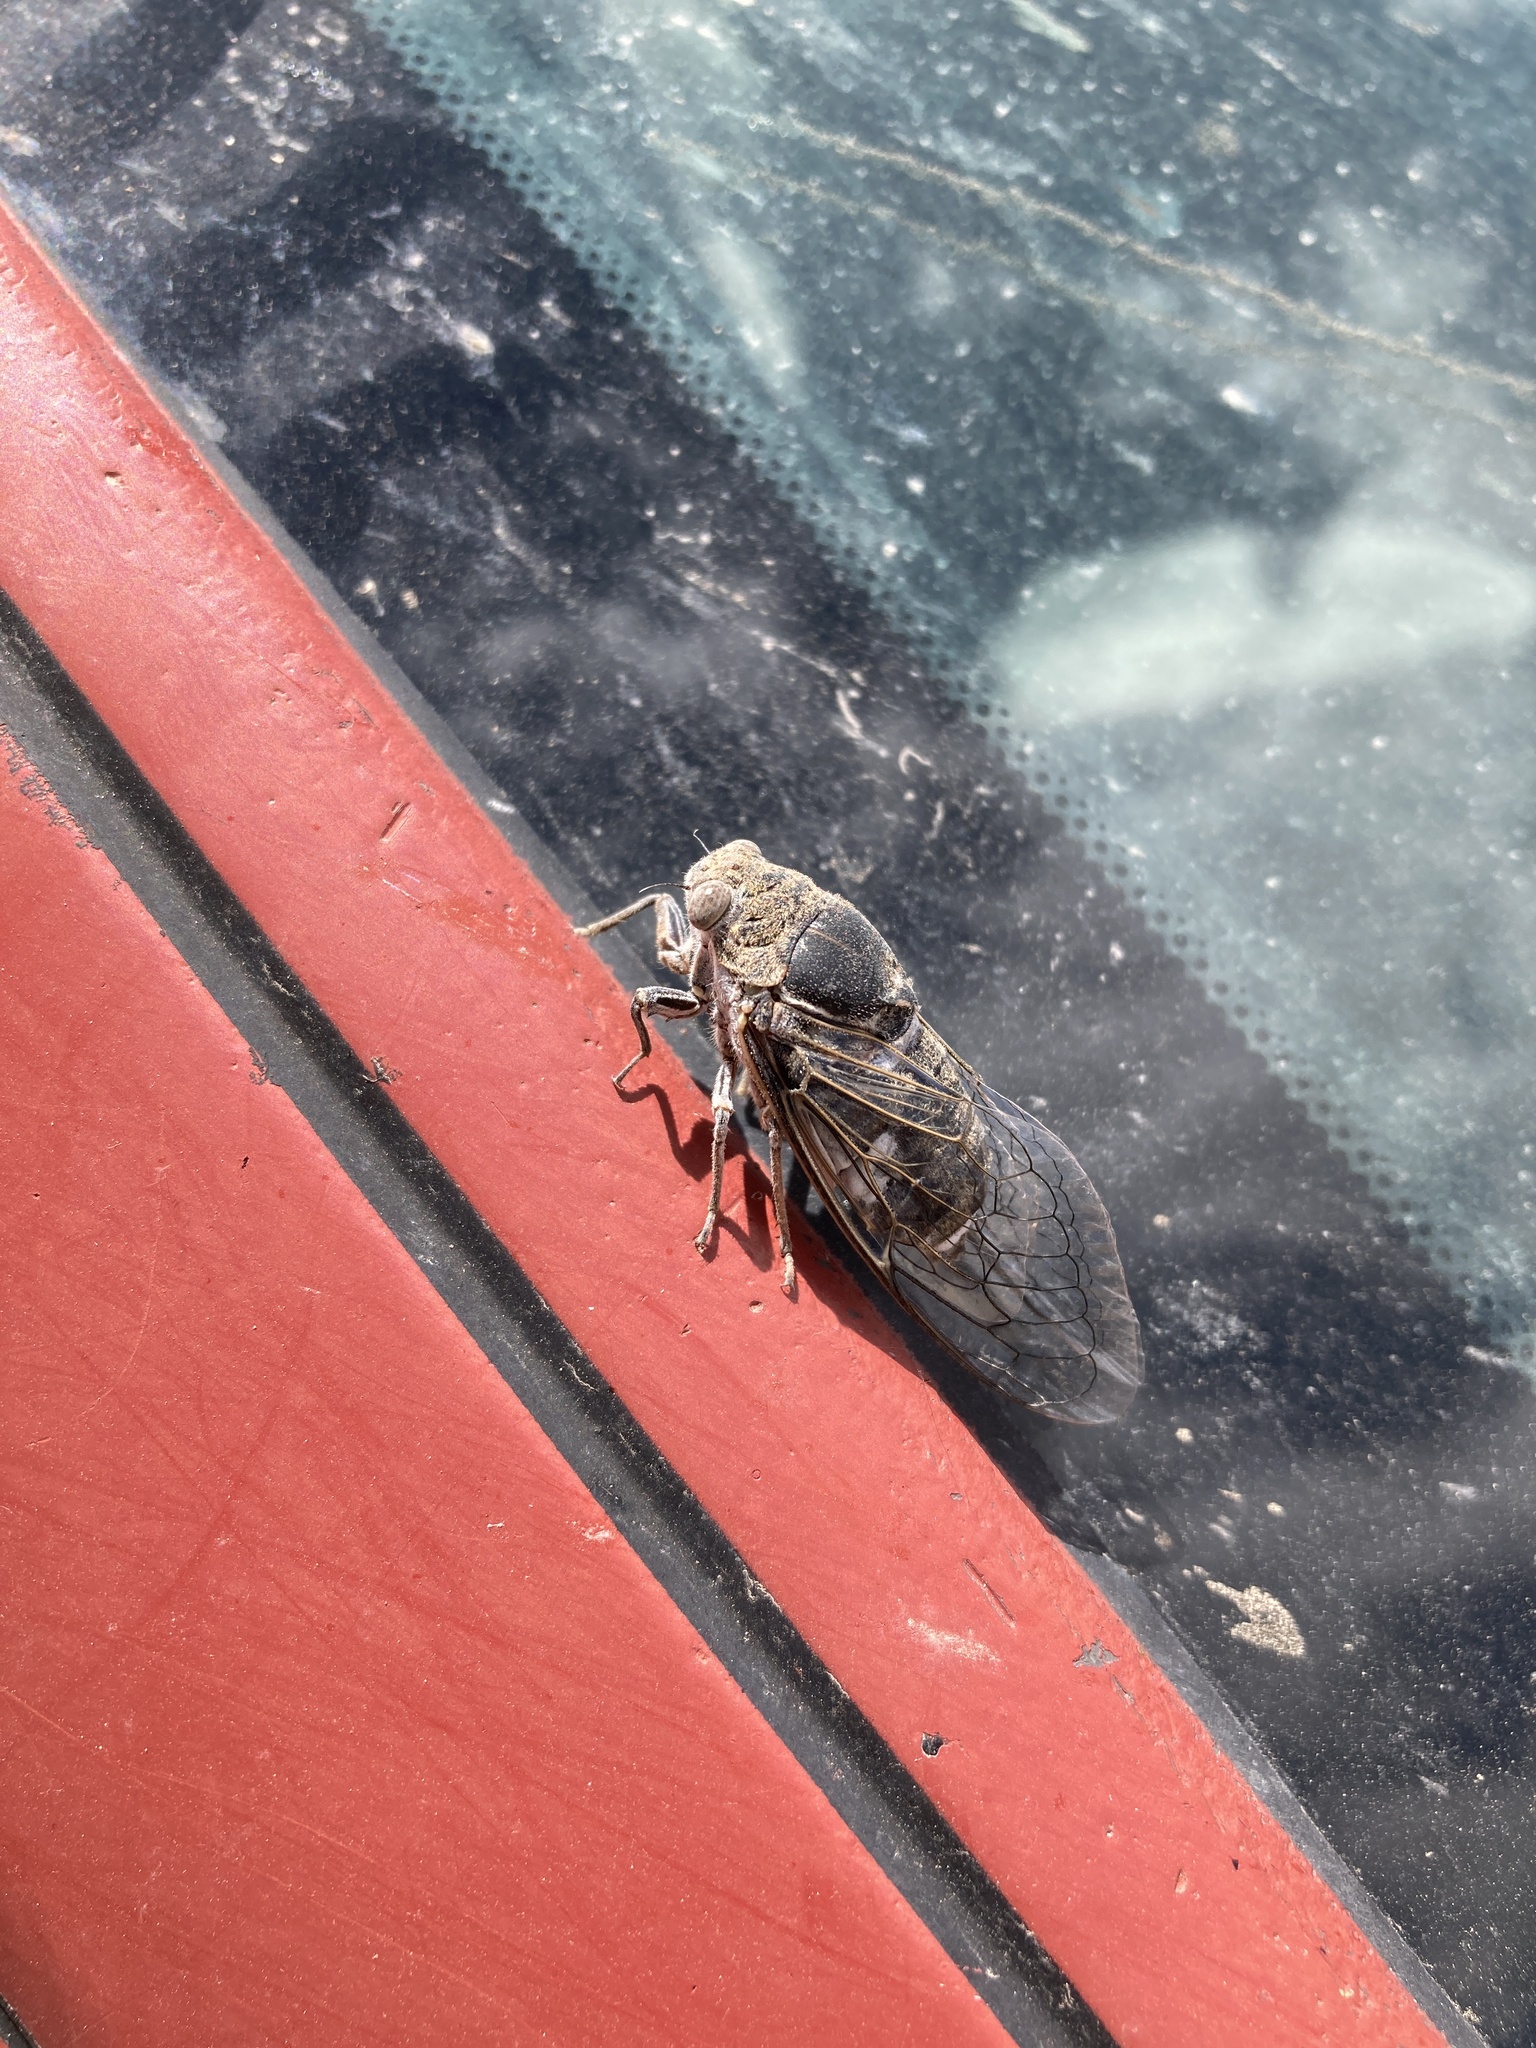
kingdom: Animalia
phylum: Arthropoda
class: Insecta
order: Hemiptera
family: Cicadidae
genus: Cacama
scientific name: Cacama valvata
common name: Cactus dodger
